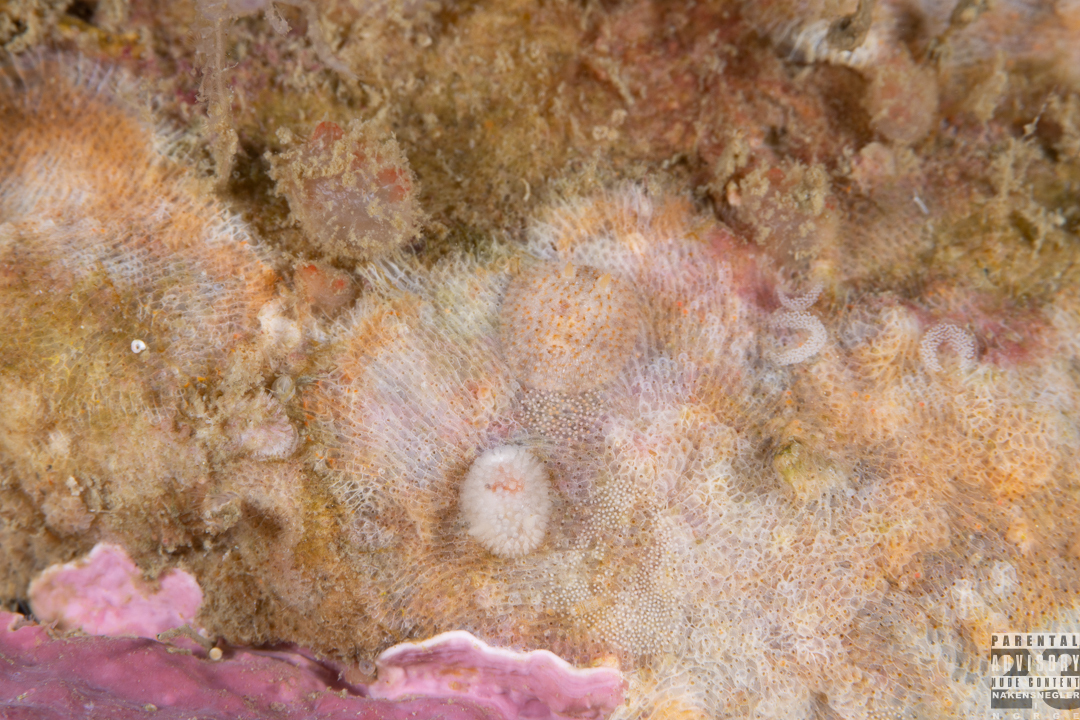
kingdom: Animalia
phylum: Mollusca
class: Gastropoda
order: Nudibranchia
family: Onchidorididae
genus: Idaliadoris
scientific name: Idaliadoris depressa
